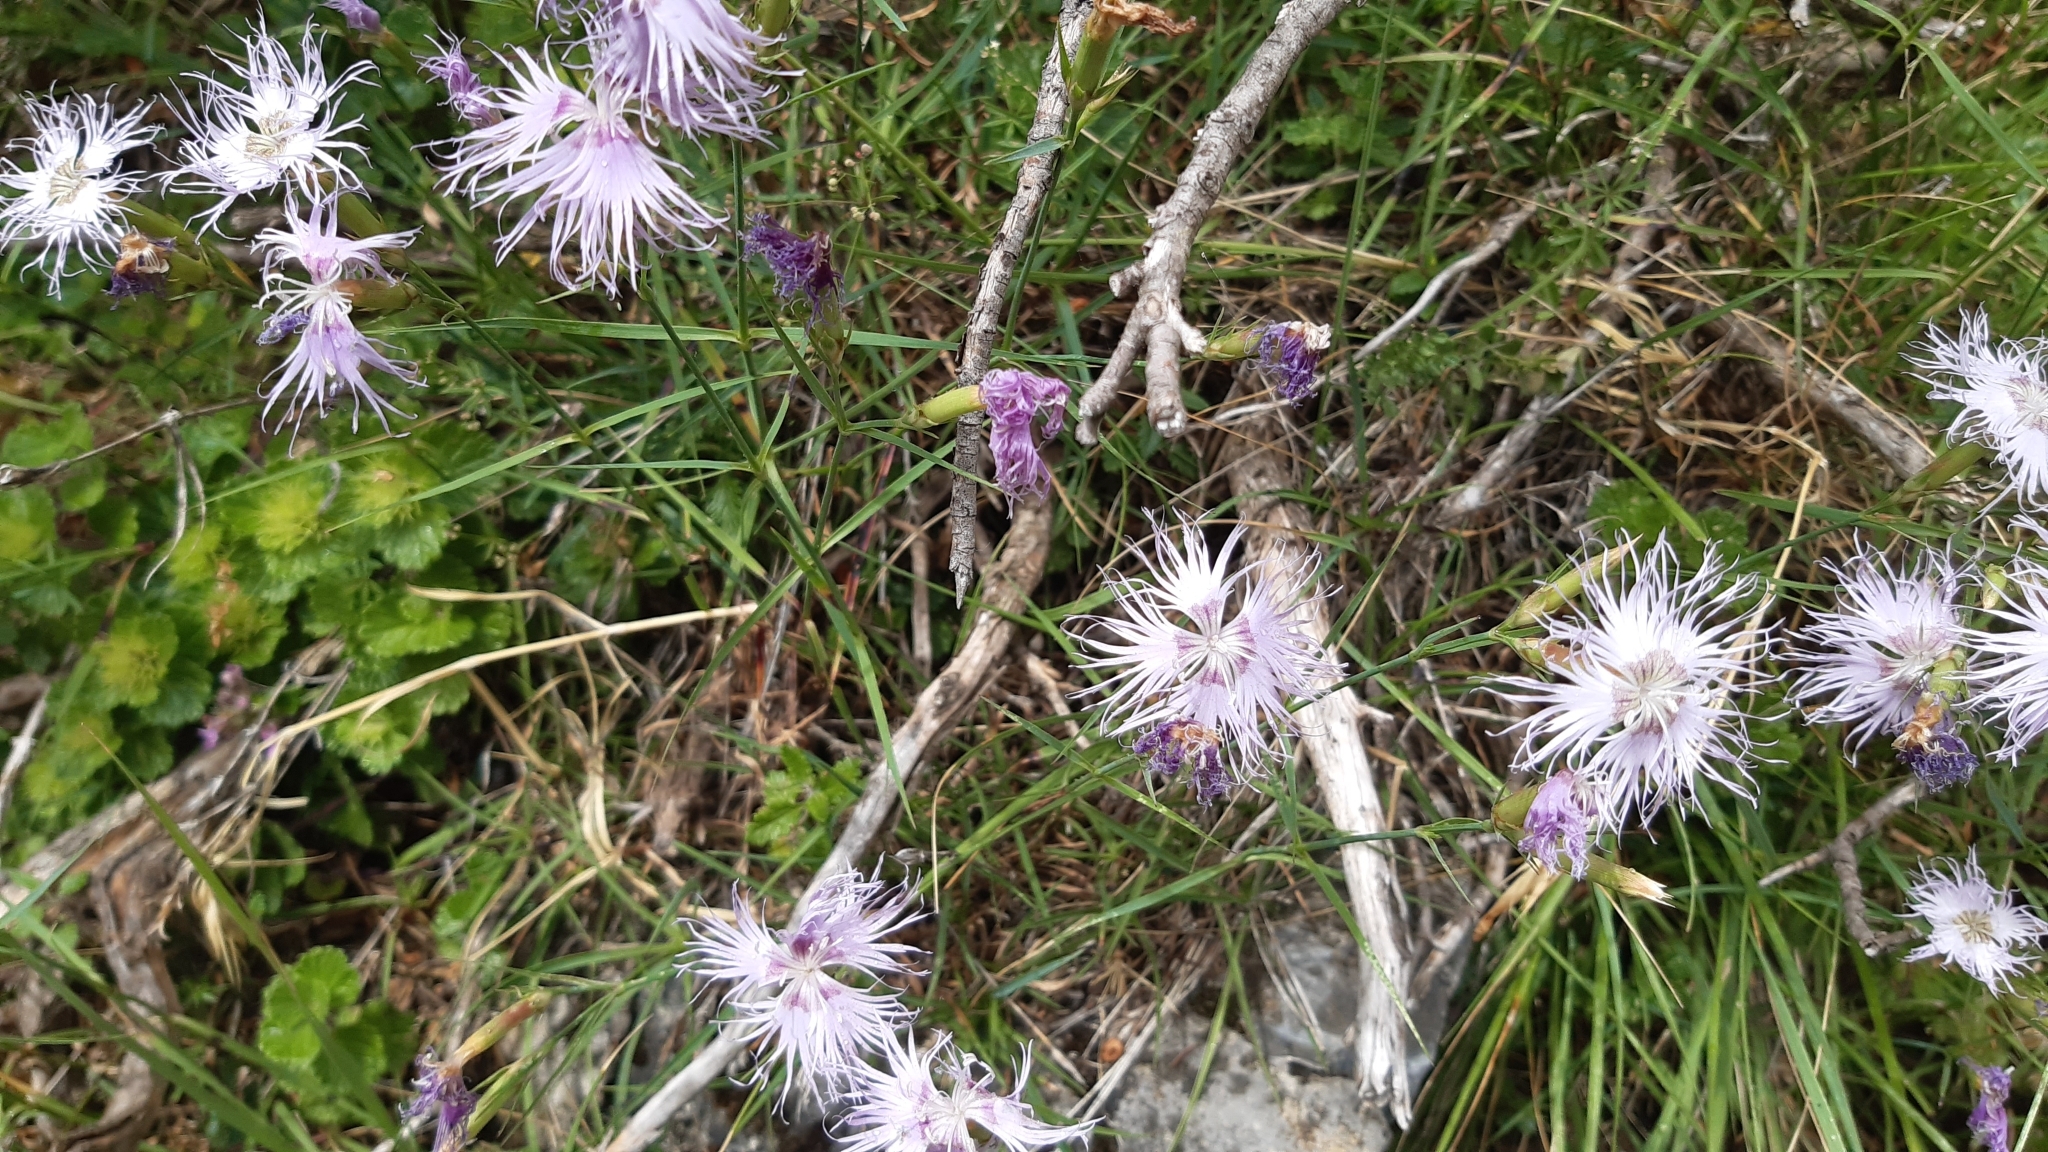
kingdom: Plantae
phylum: Tracheophyta
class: Magnoliopsida
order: Caryophyllales
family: Caryophyllaceae
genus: Dianthus
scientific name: Dianthus hyssopifolius
